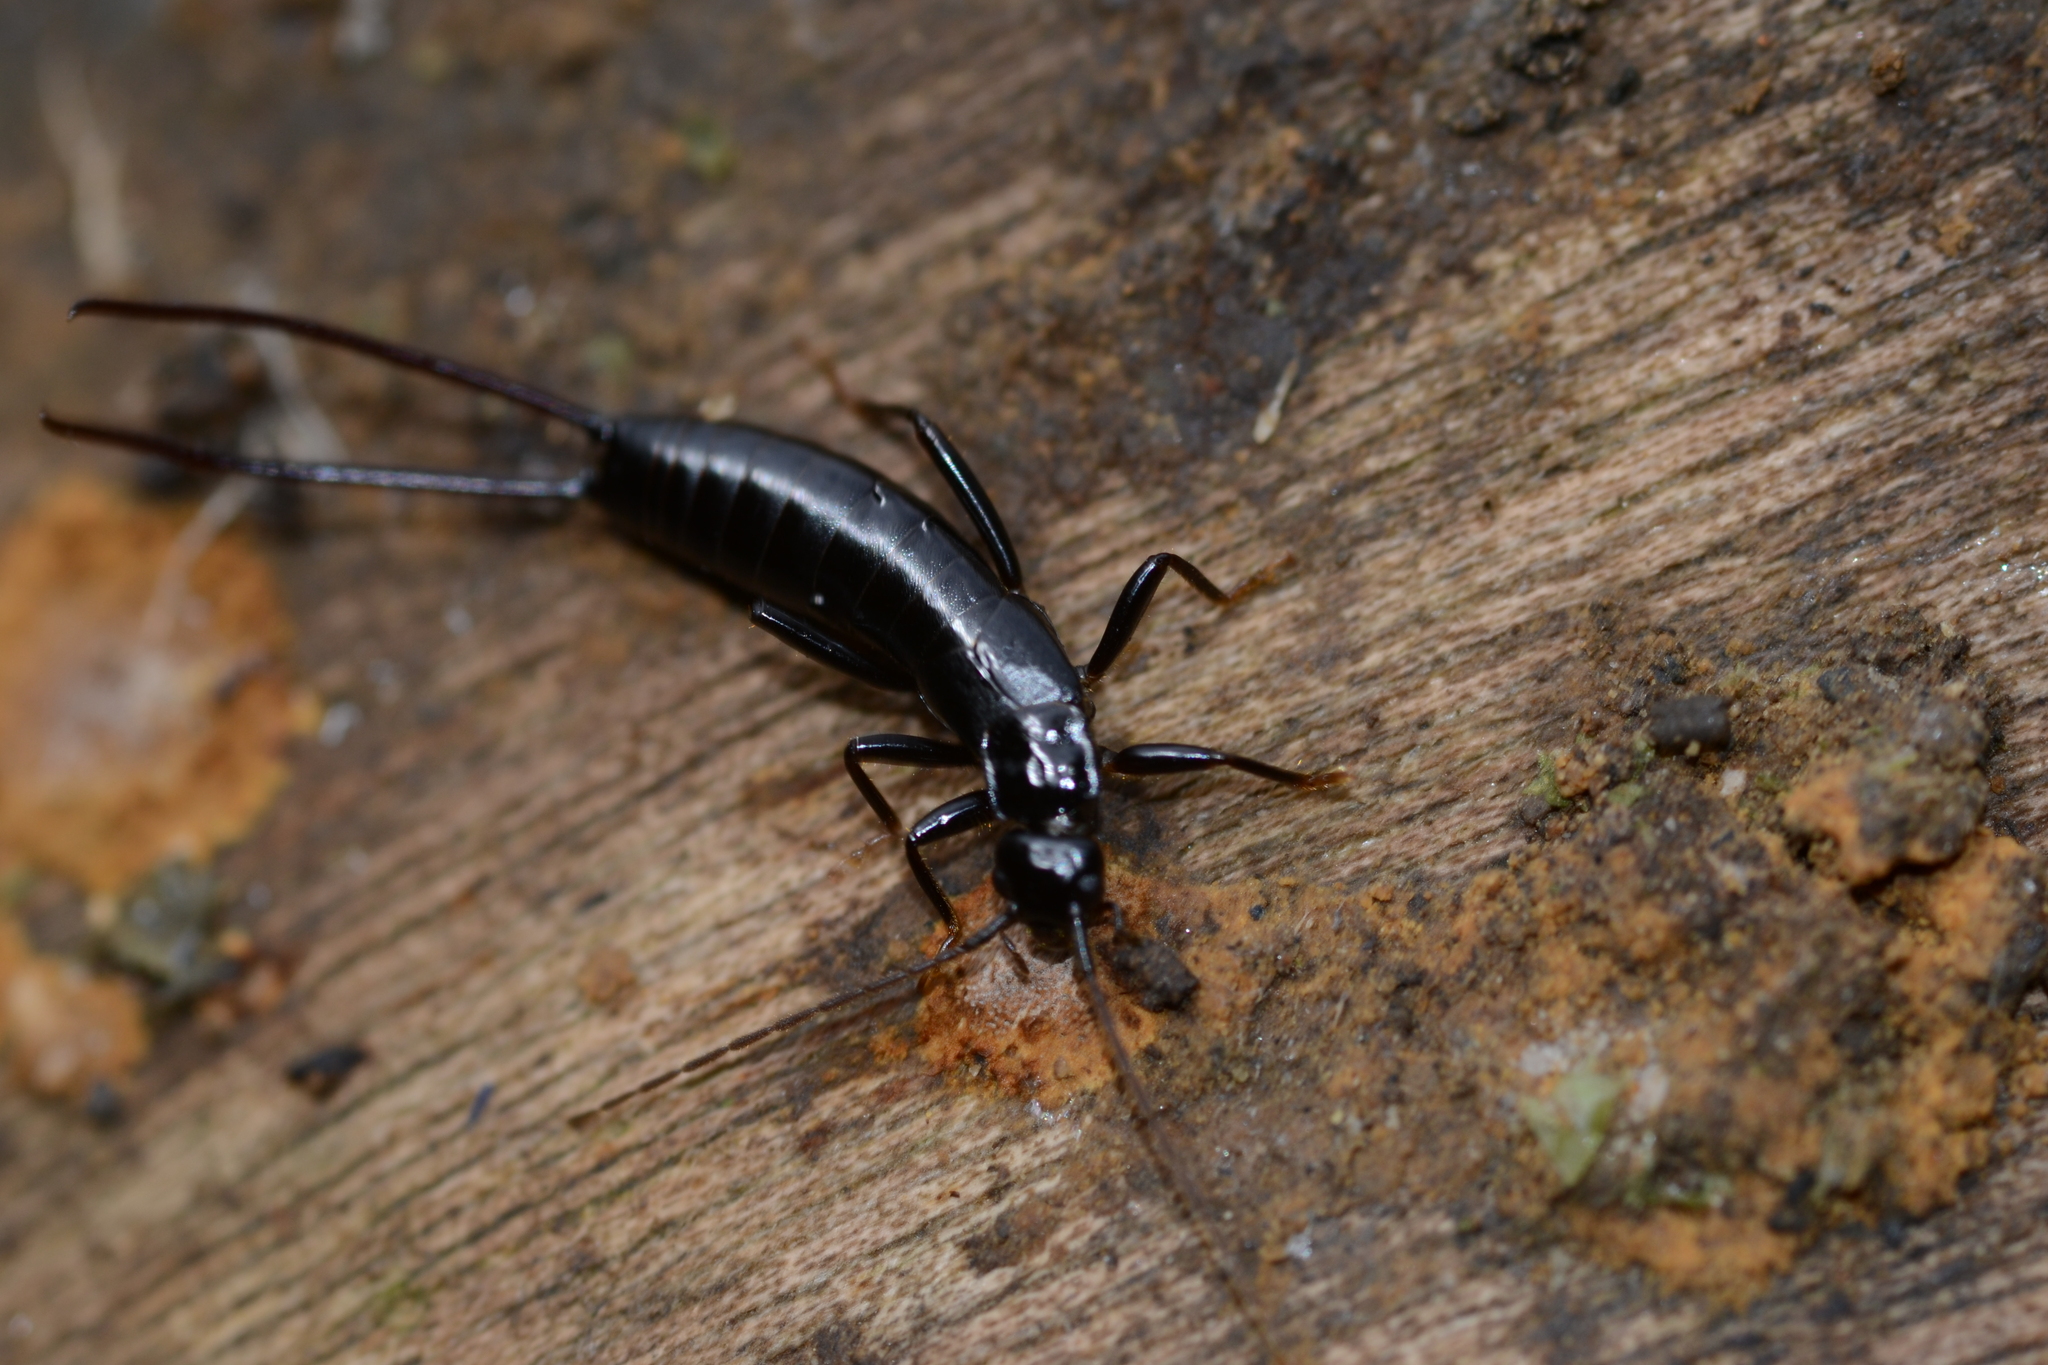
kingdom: Animalia
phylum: Arthropoda
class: Insecta
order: Dermaptera
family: Forficulidae
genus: Neolobophora
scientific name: Neolobophora bogotensis
